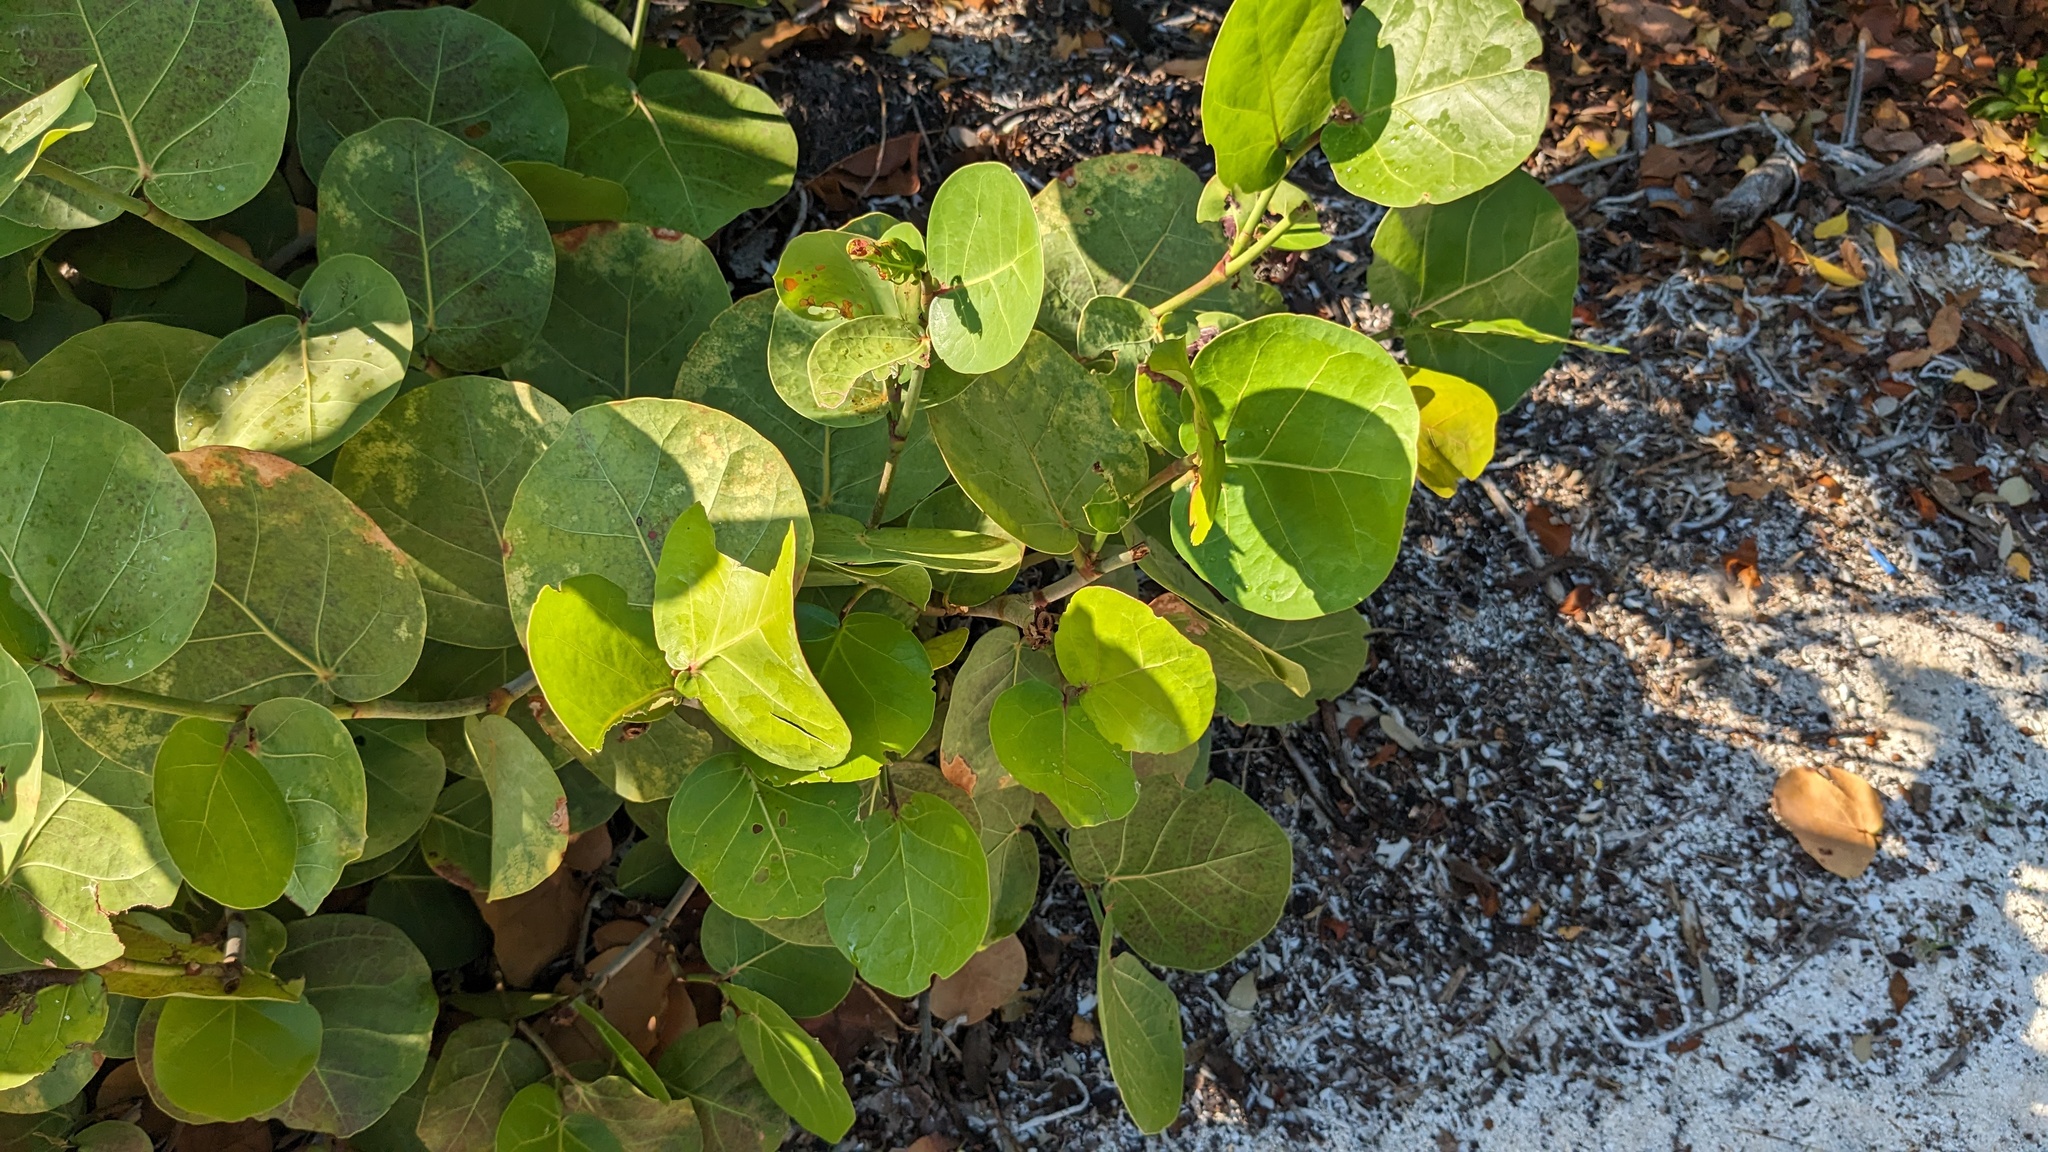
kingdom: Plantae
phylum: Tracheophyta
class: Magnoliopsida
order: Caryophyllales
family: Polygonaceae
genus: Coccoloba
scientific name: Coccoloba uvifera
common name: Seagrape
